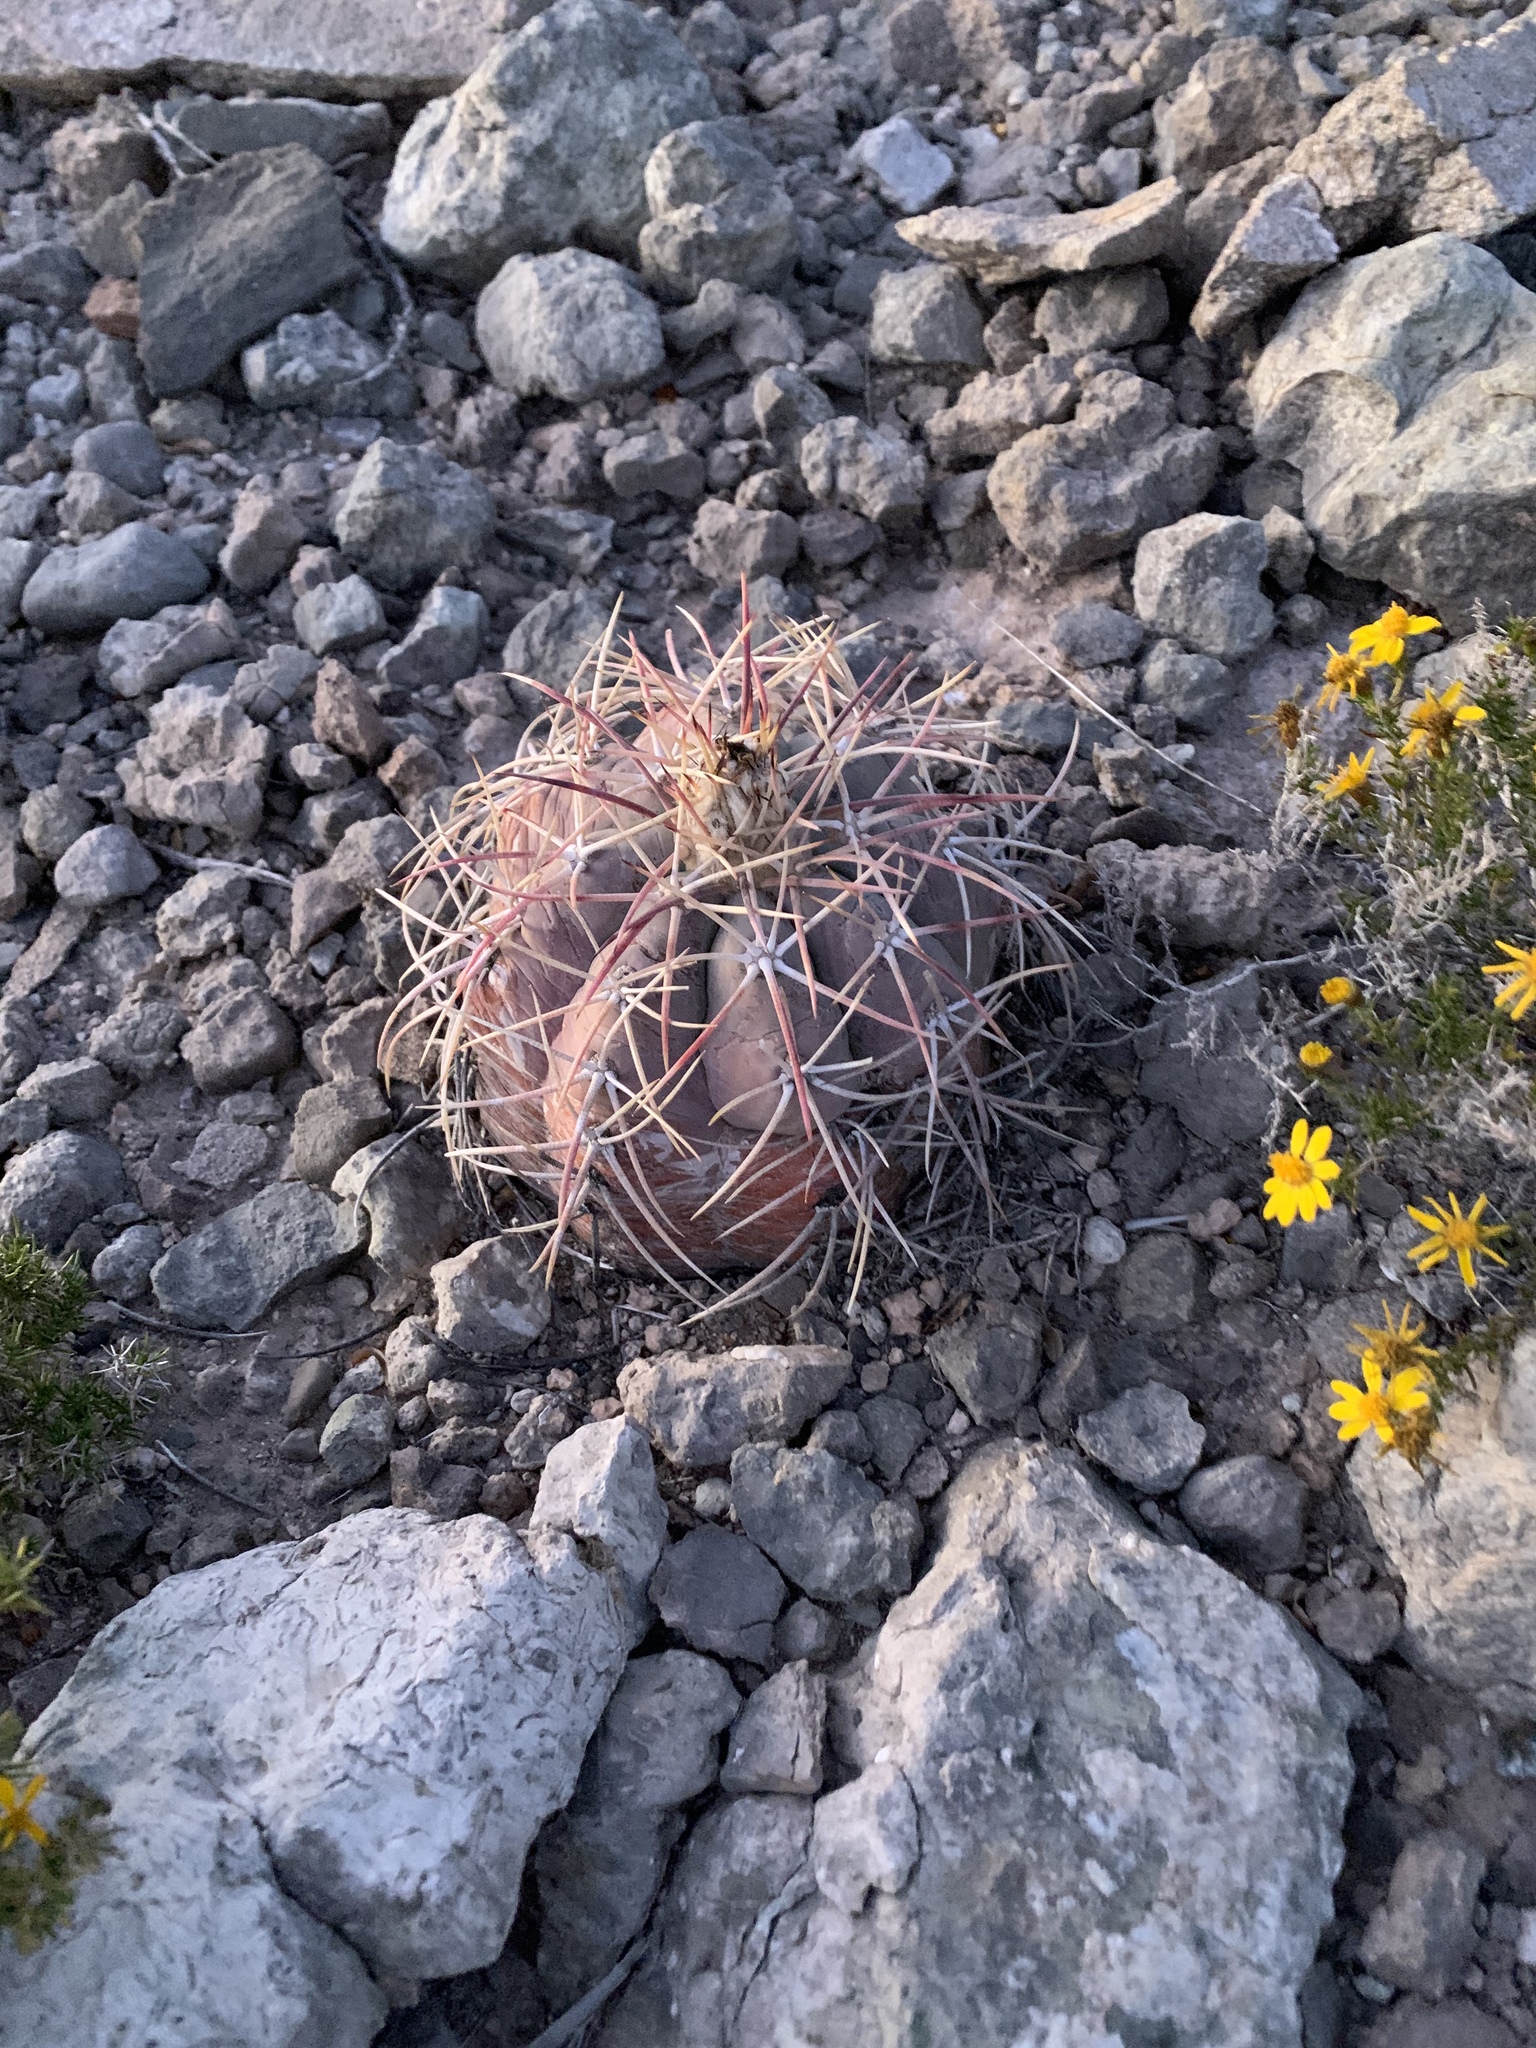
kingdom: Plantae
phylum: Tracheophyta
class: Magnoliopsida
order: Caryophyllales
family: Cactaceae
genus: Echinocactus
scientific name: Echinocactus horizonthalonius
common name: Devilshead
